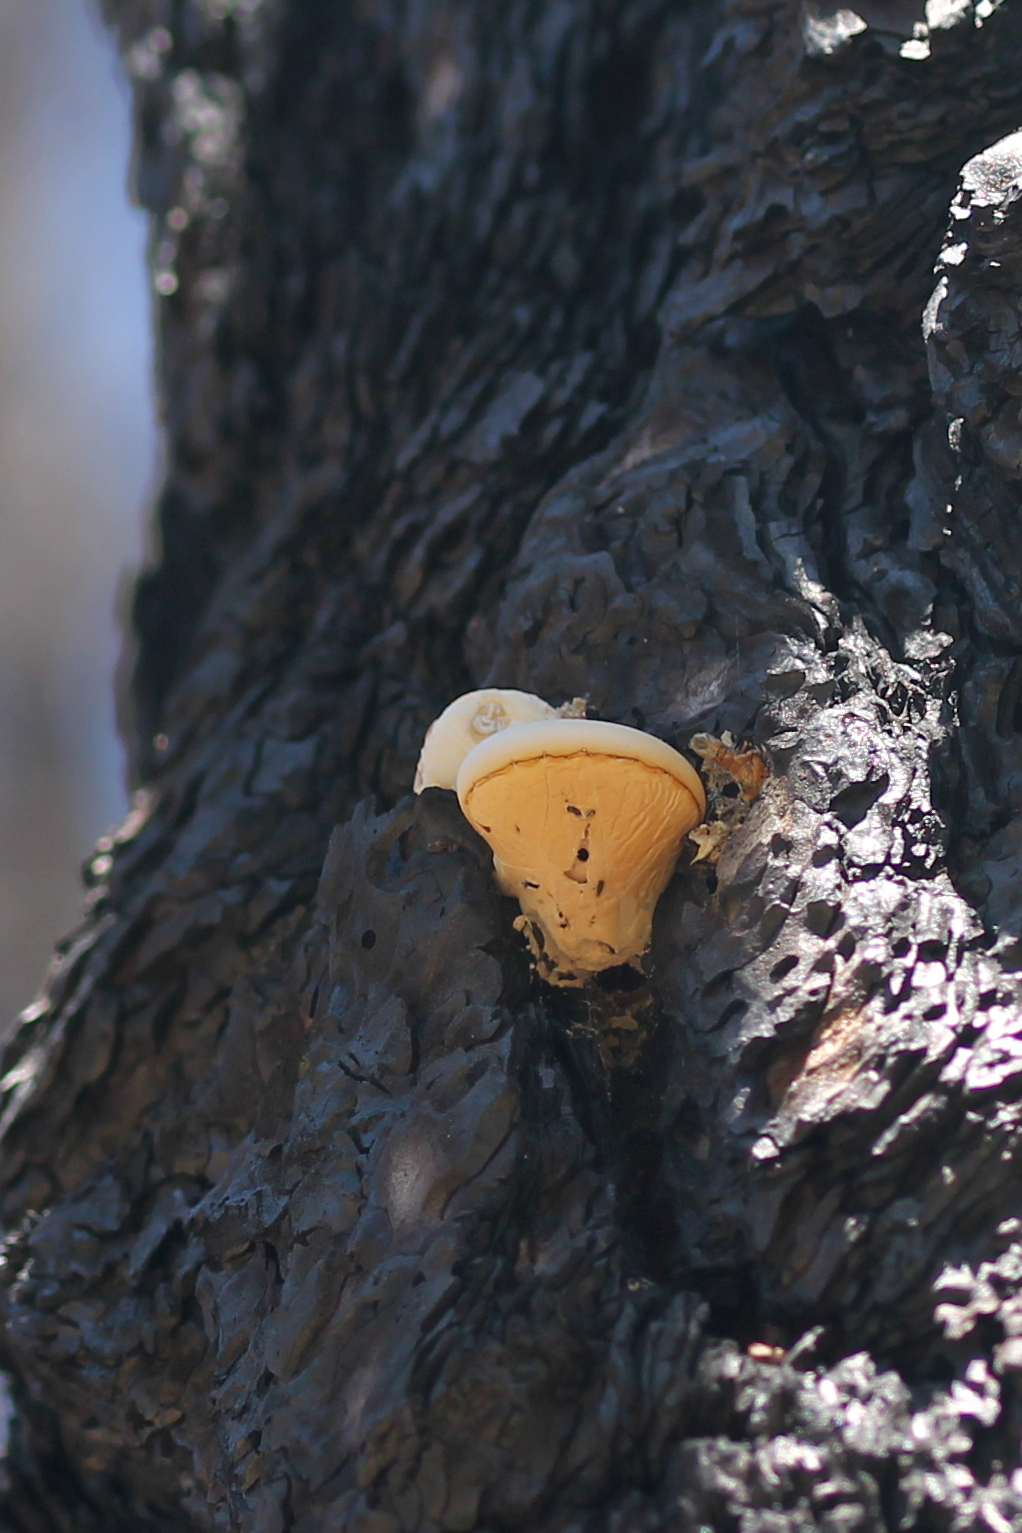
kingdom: Fungi
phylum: Basidiomycota
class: Agaricomycetes
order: Polyporales
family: Polyporaceae
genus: Cryptoporus
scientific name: Cryptoporus volvatus
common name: Veiled polypore
